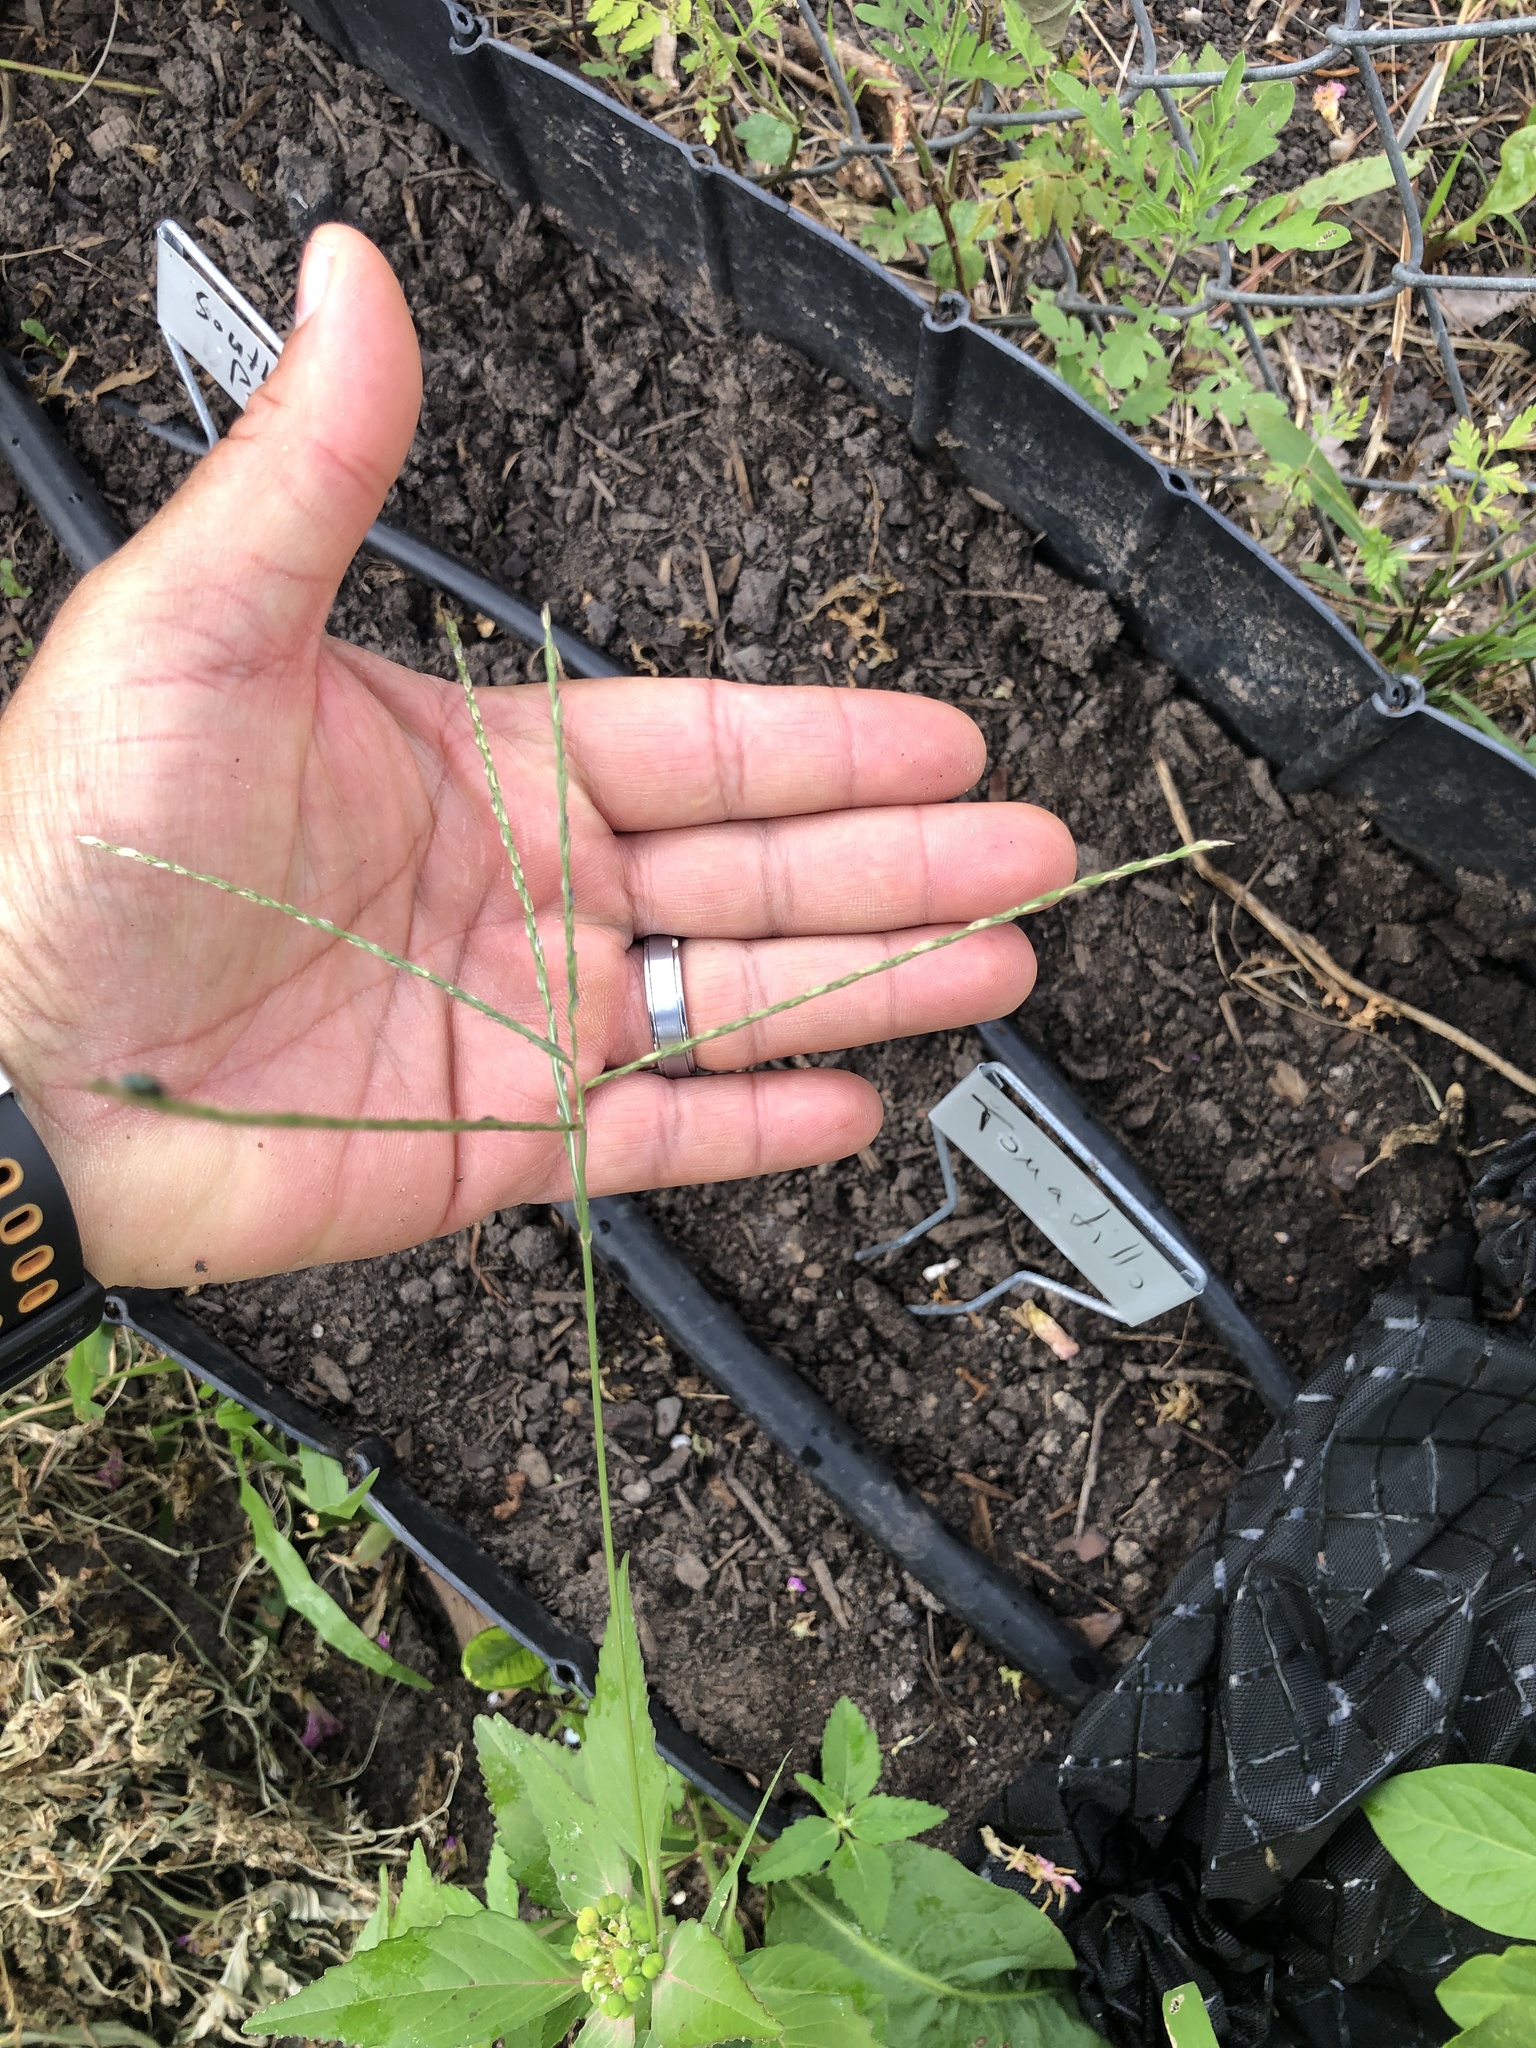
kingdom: Plantae
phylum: Tracheophyta
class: Liliopsida
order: Poales
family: Poaceae
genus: Digitaria
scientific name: Digitaria sanguinalis
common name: Hairy crabgrass
